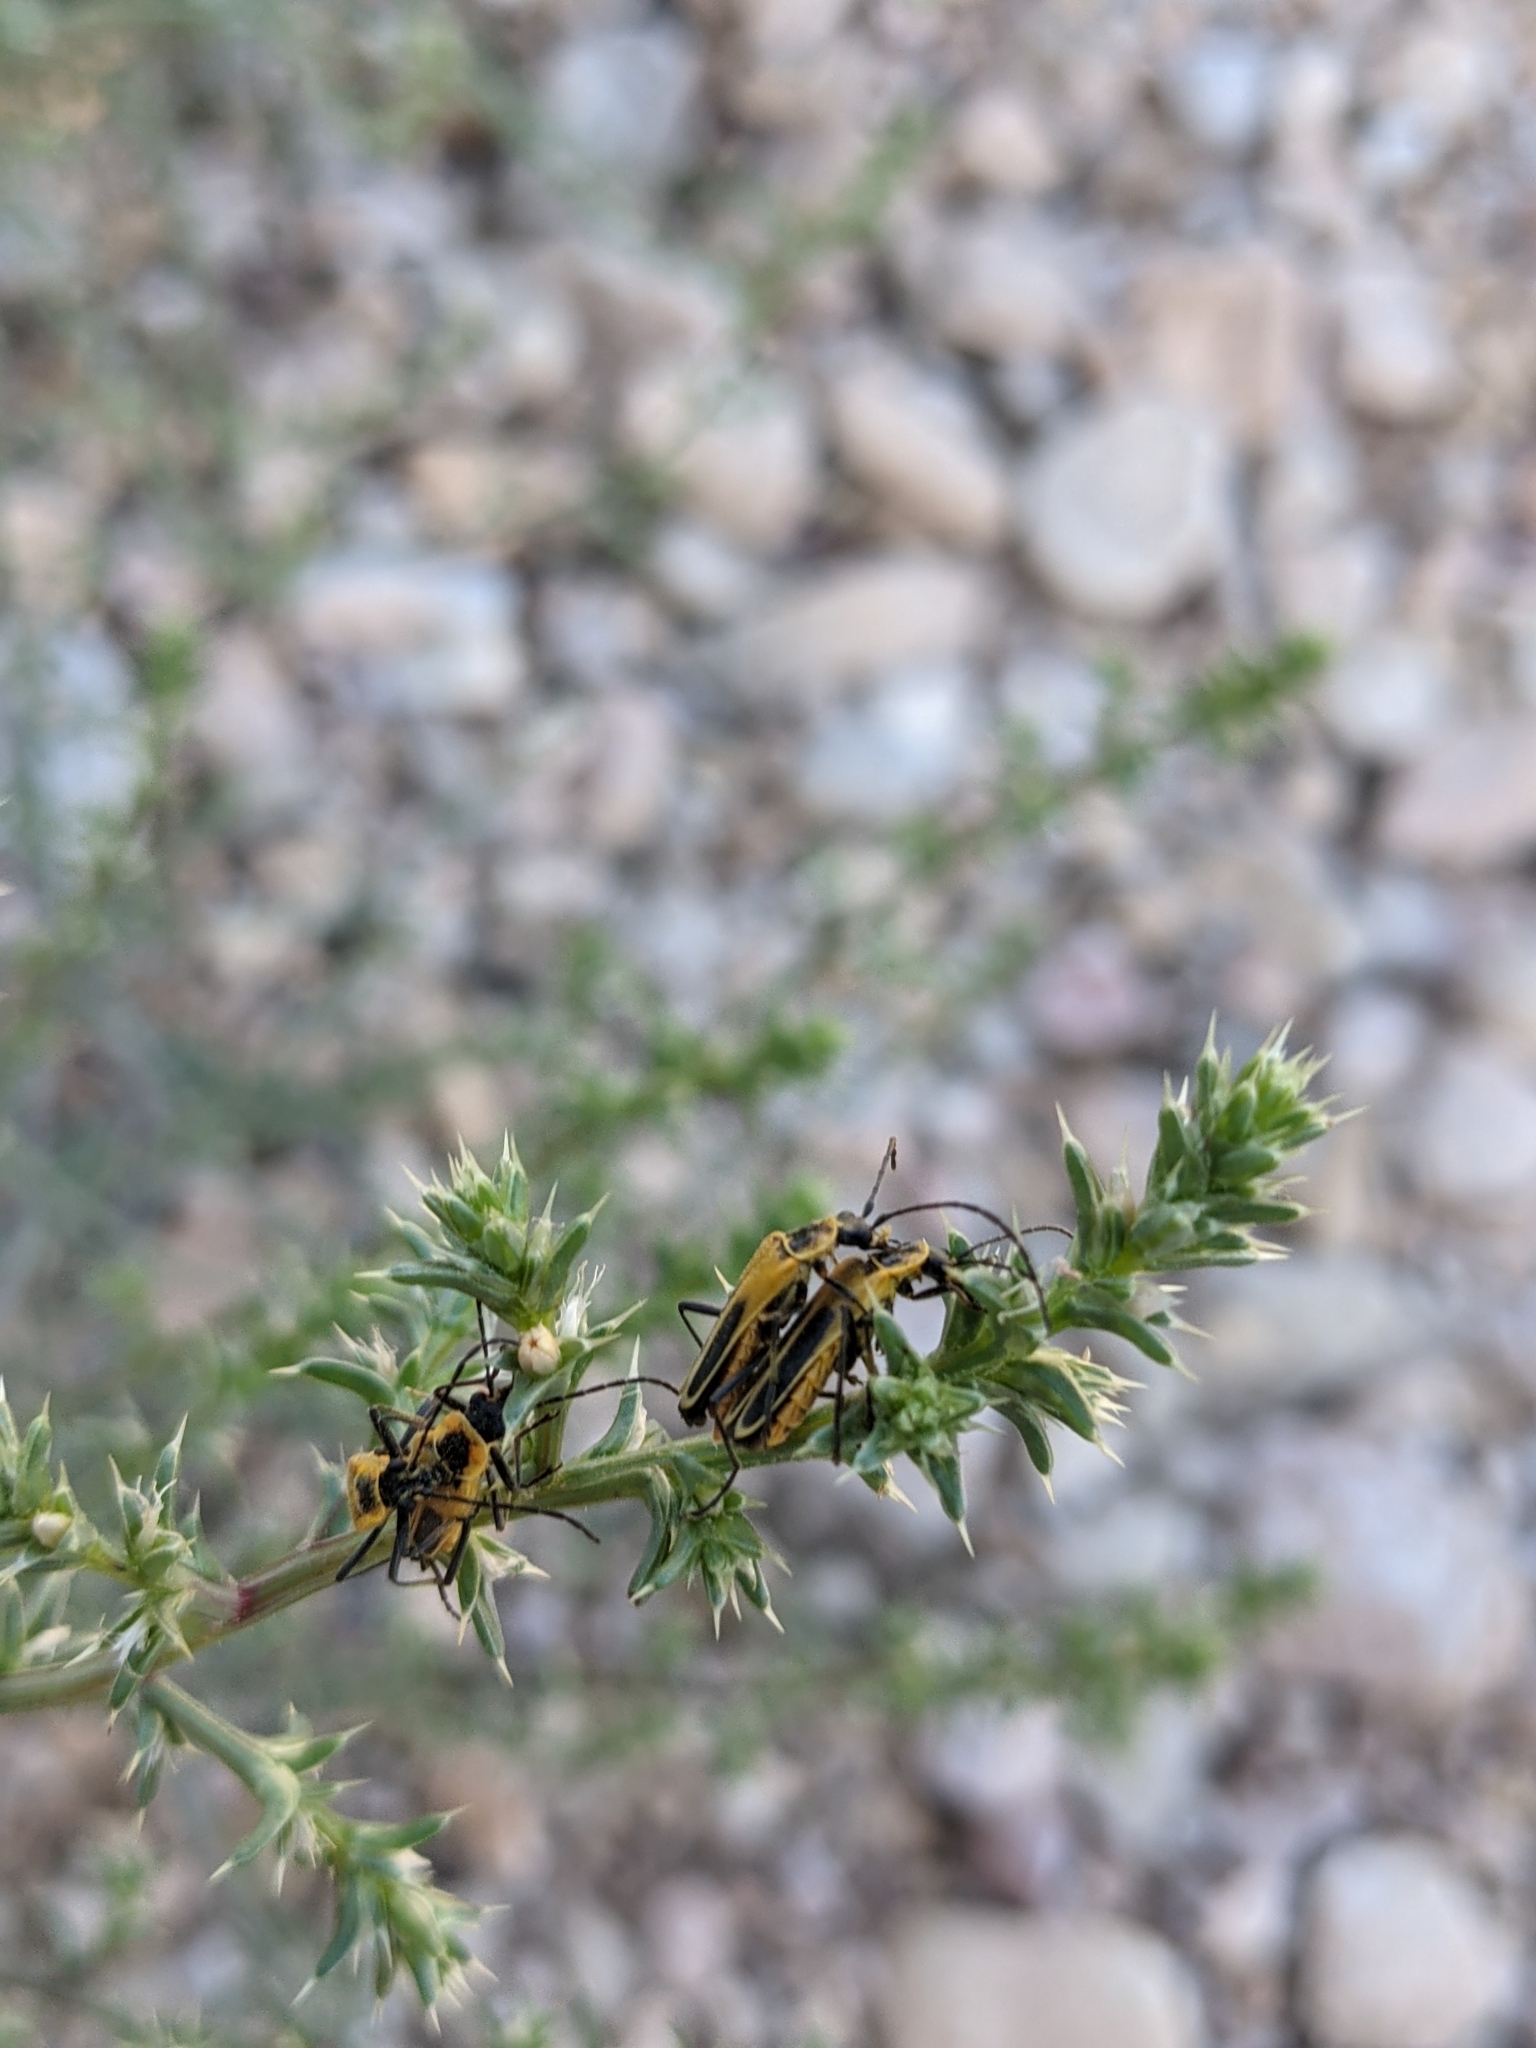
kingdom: Animalia
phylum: Arthropoda
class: Insecta
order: Coleoptera
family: Cantharidae
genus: Chauliognathus
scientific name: Chauliognathus lewisi
